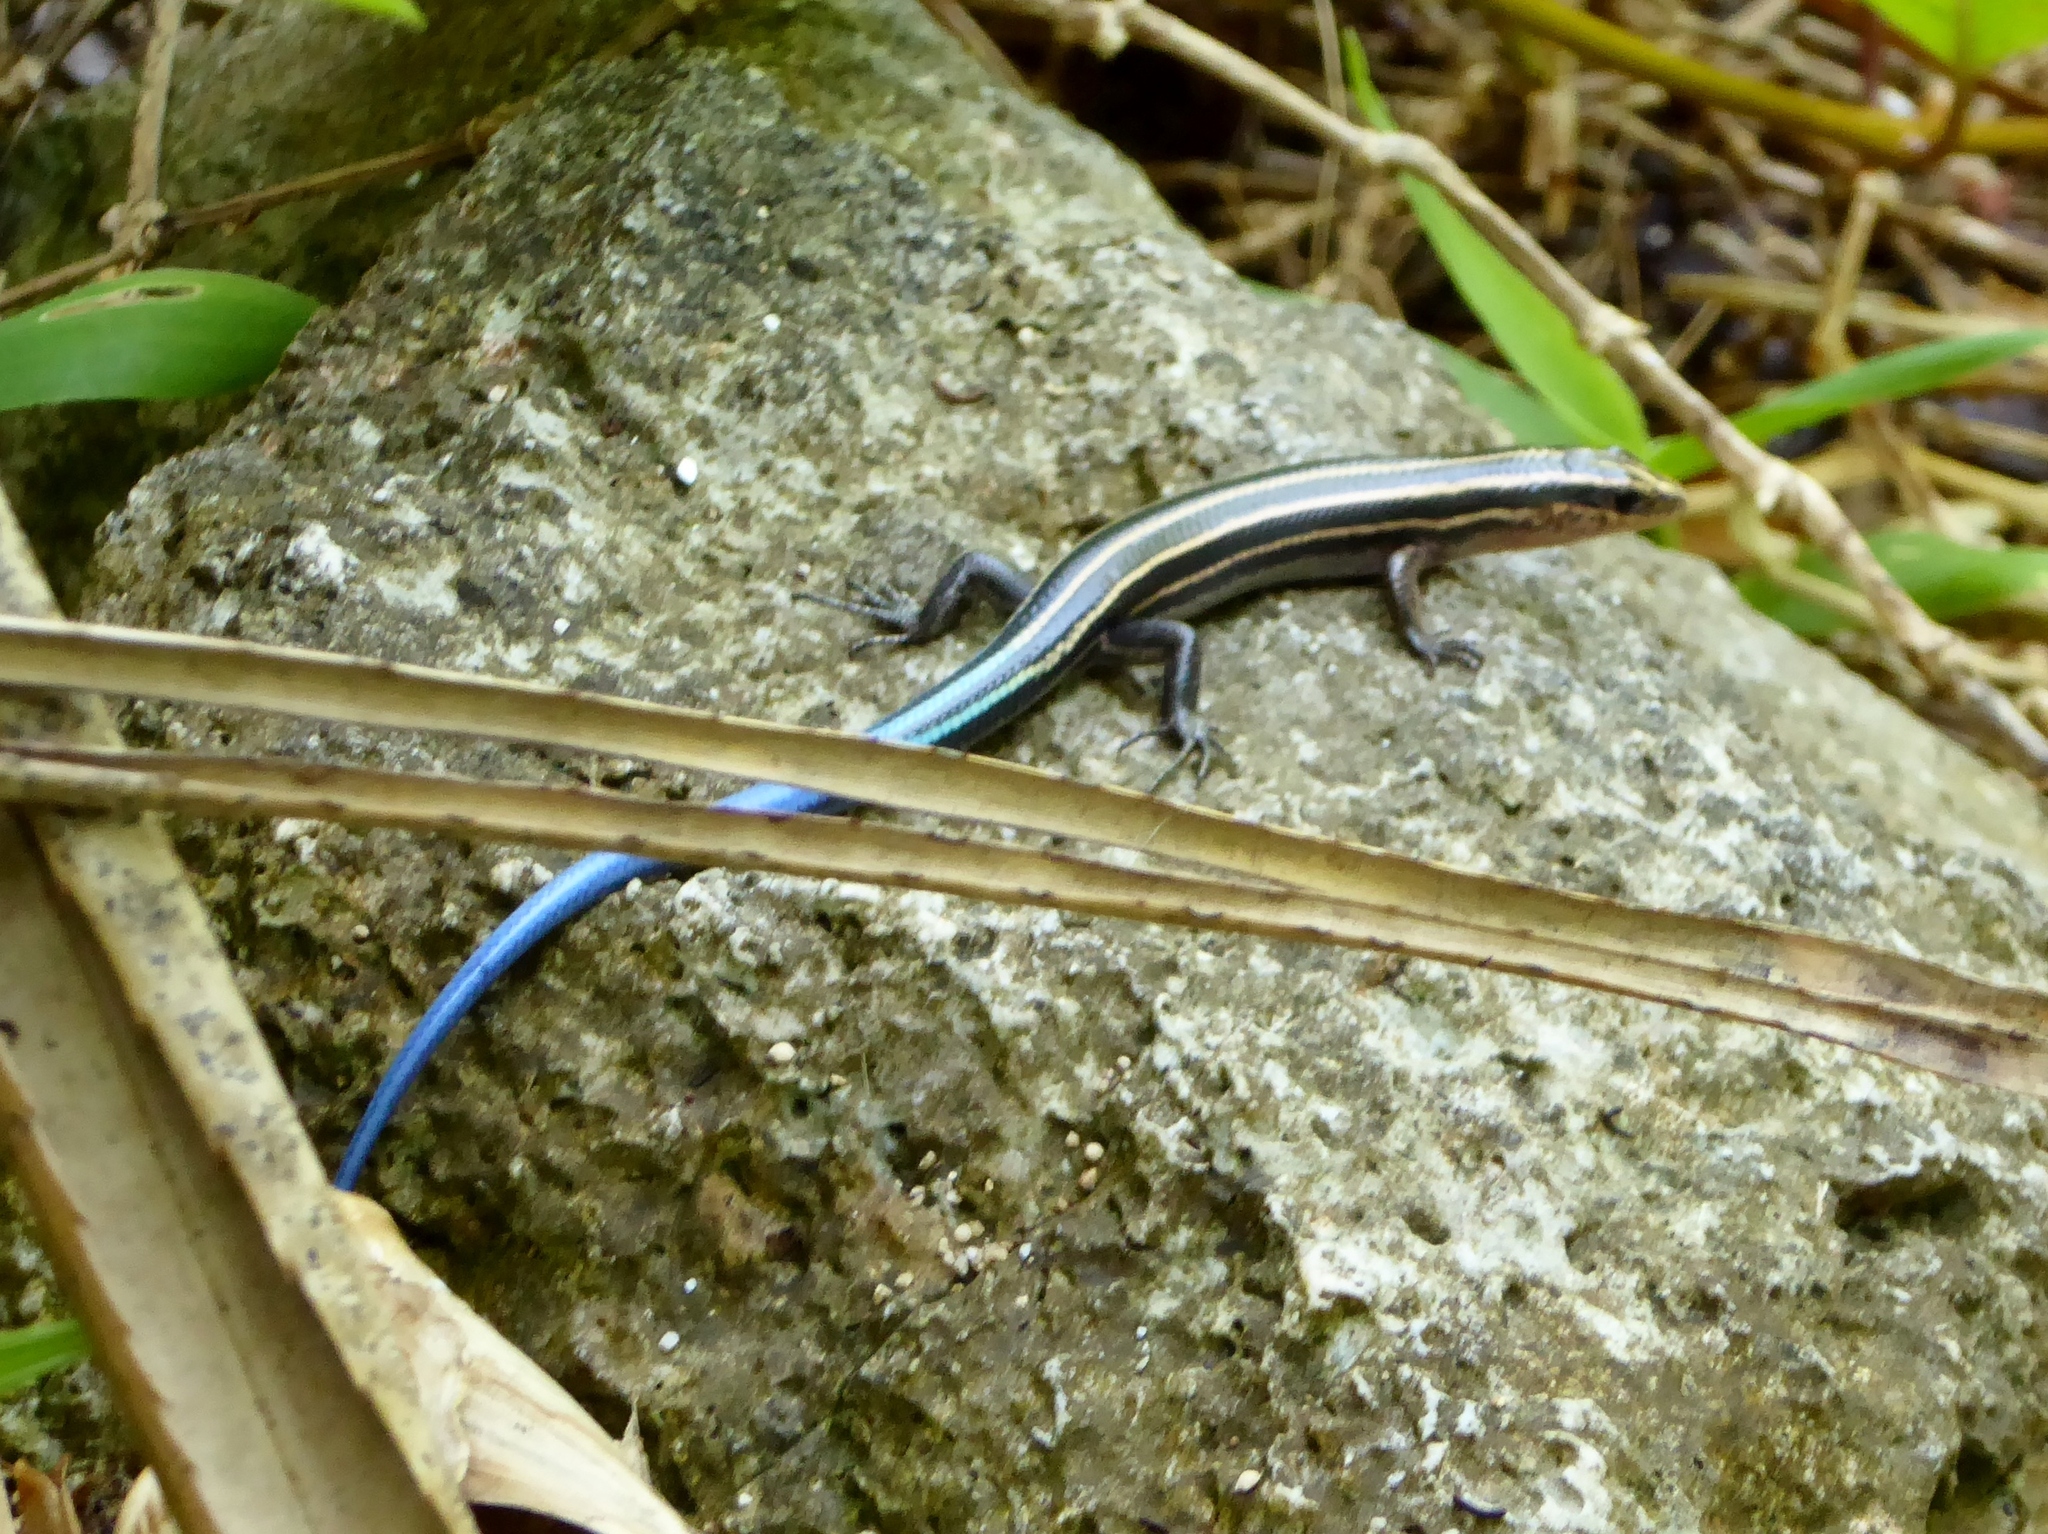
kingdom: Animalia
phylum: Chordata
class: Squamata
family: Scincidae
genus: Plestiodon
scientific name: Plestiodon stimpsonii
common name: Stimpson's skink
